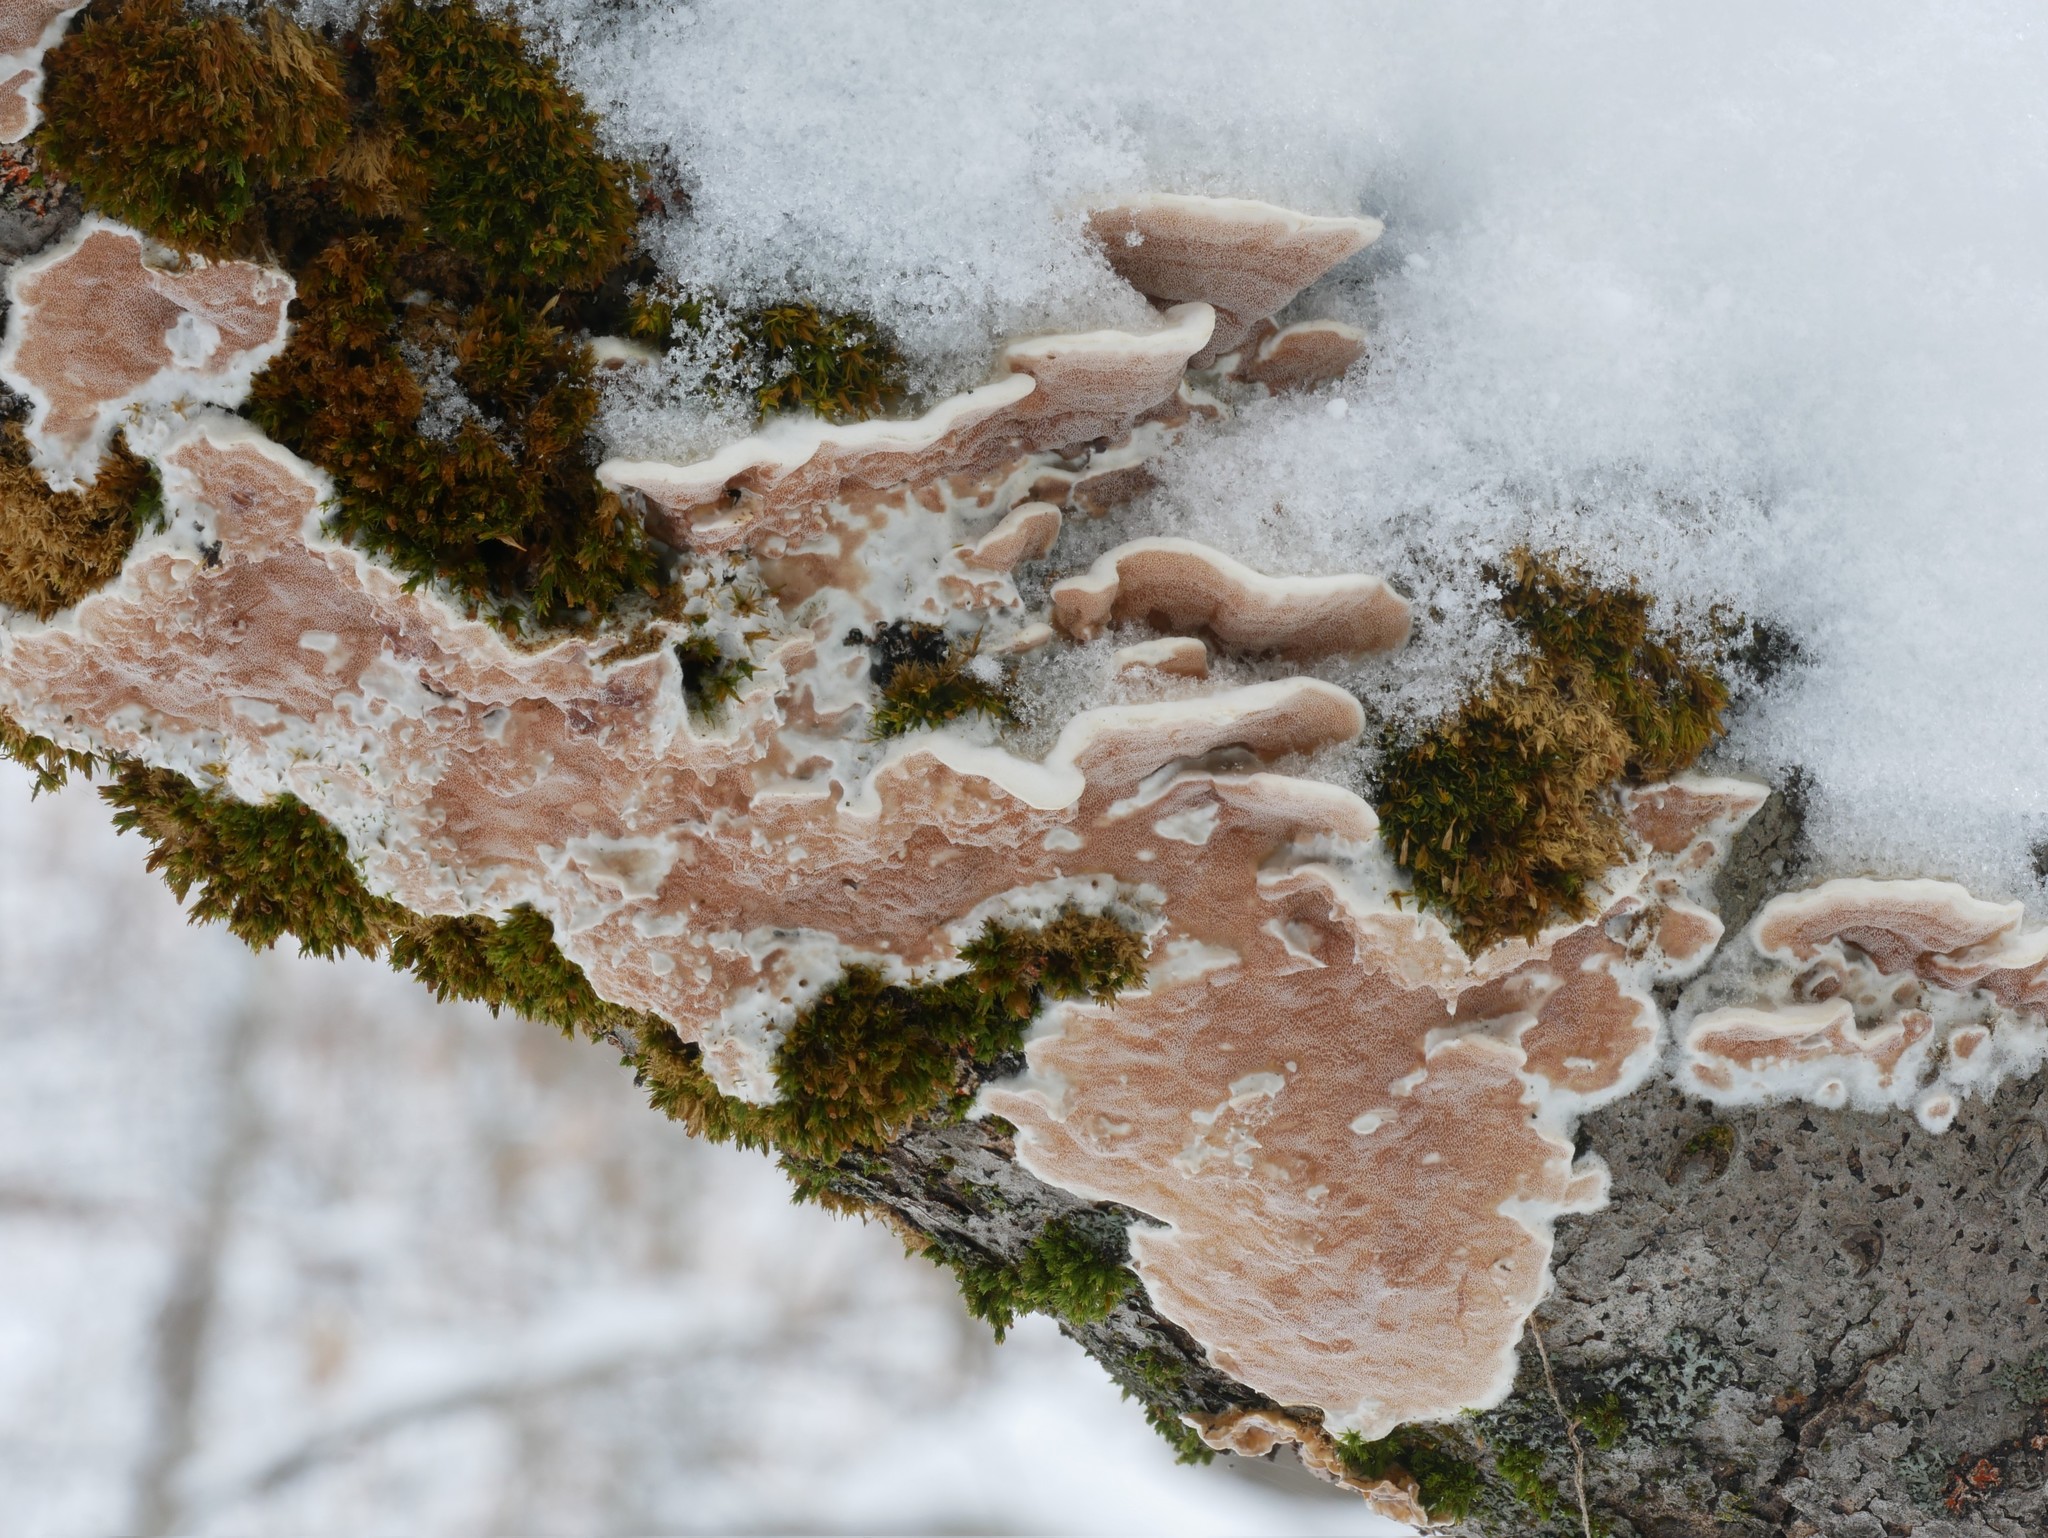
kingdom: Fungi
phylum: Basidiomycota
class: Agaricomycetes
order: Polyporales
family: Irpicaceae
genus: Vitreoporus
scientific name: Vitreoporus dichrous
